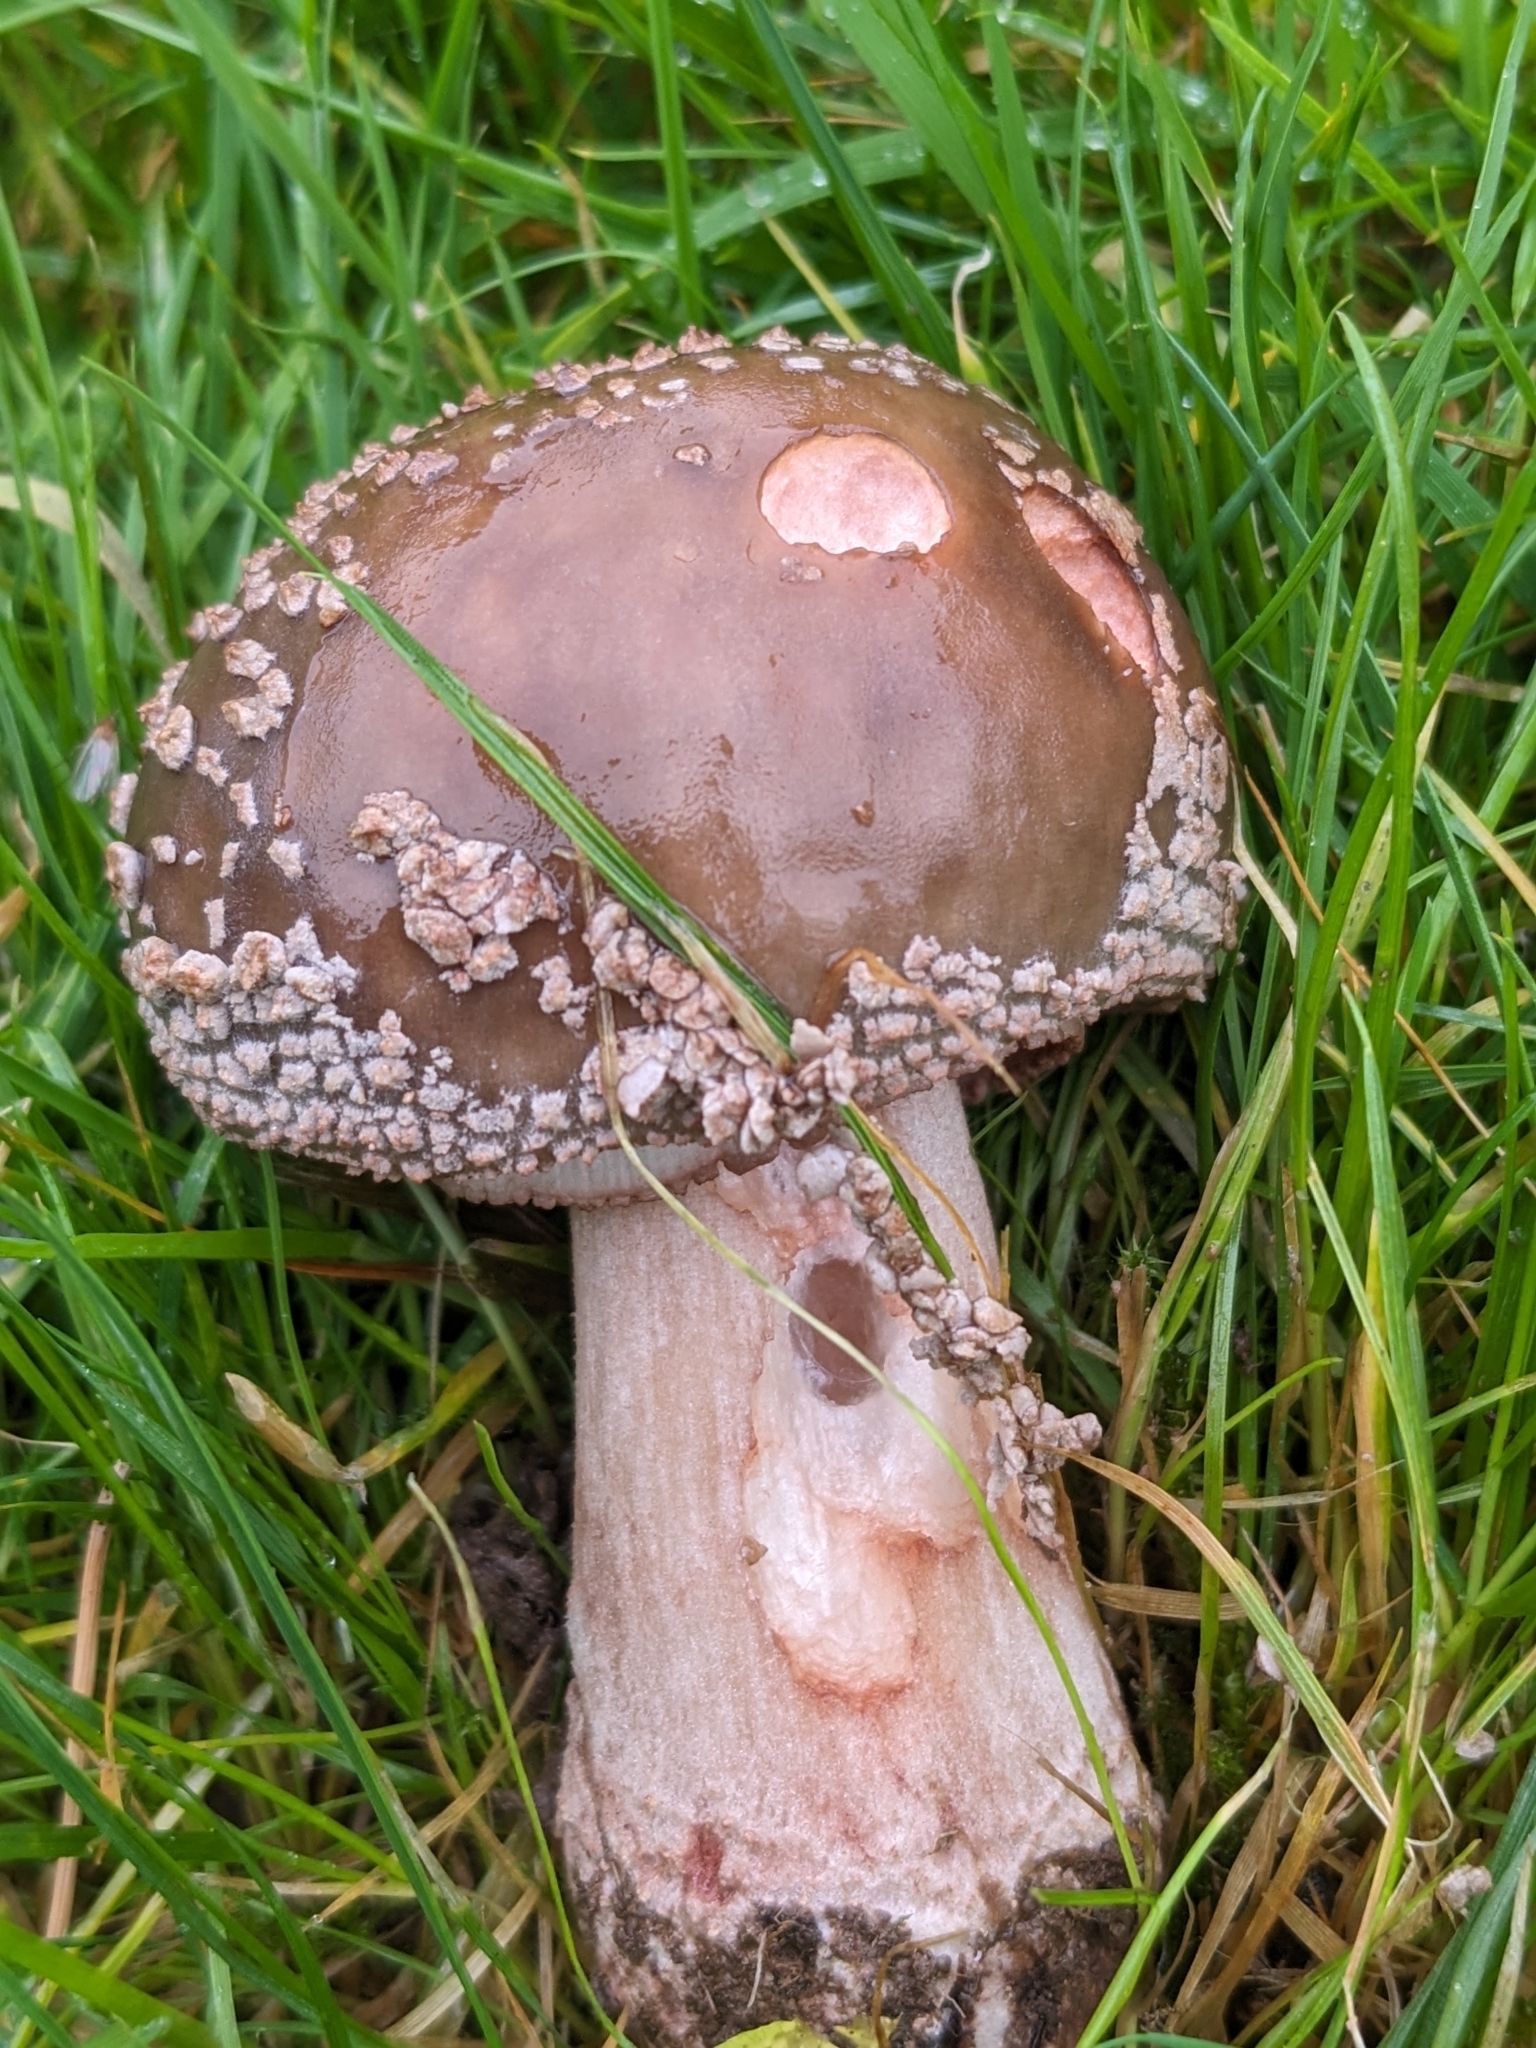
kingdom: Fungi
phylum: Basidiomycota
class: Agaricomycetes
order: Agaricales
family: Amanitaceae
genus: Amanita
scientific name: Amanita rubescens
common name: Blusher
